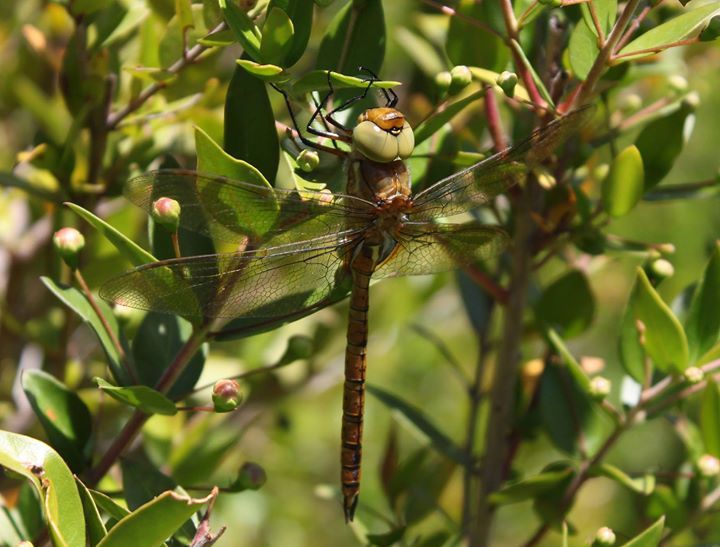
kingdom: Animalia
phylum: Arthropoda
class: Insecta
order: Odonata
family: Aeshnidae
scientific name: Aeshnidae
